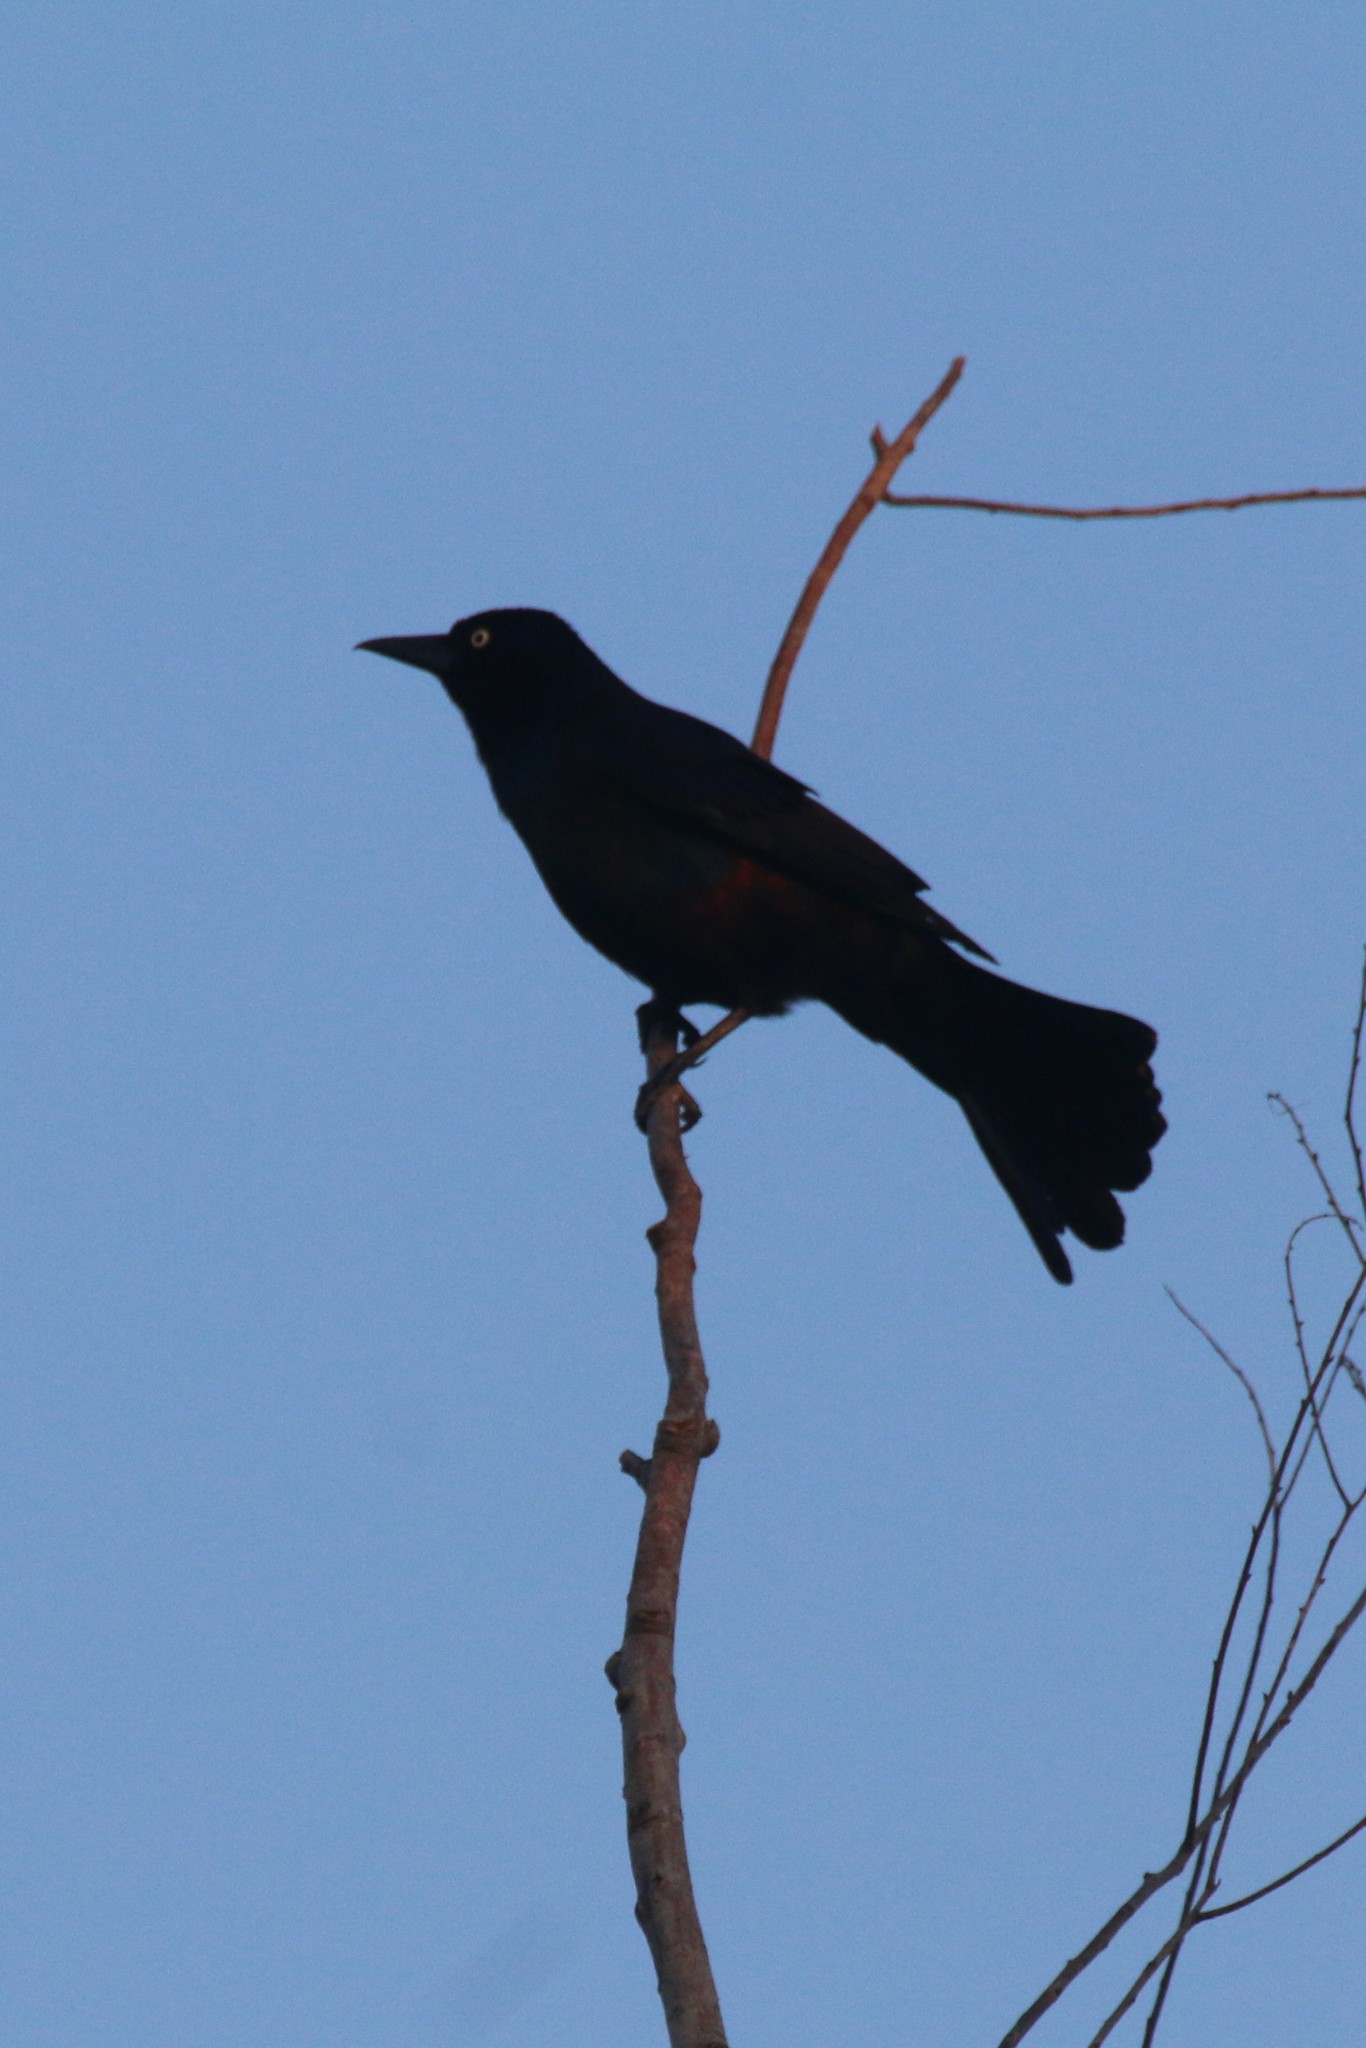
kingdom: Animalia
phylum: Chordata
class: Aves
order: Passeriformes
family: Icteridae
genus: Quiscalus
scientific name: Quiscalus quiscula
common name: Common grackle
